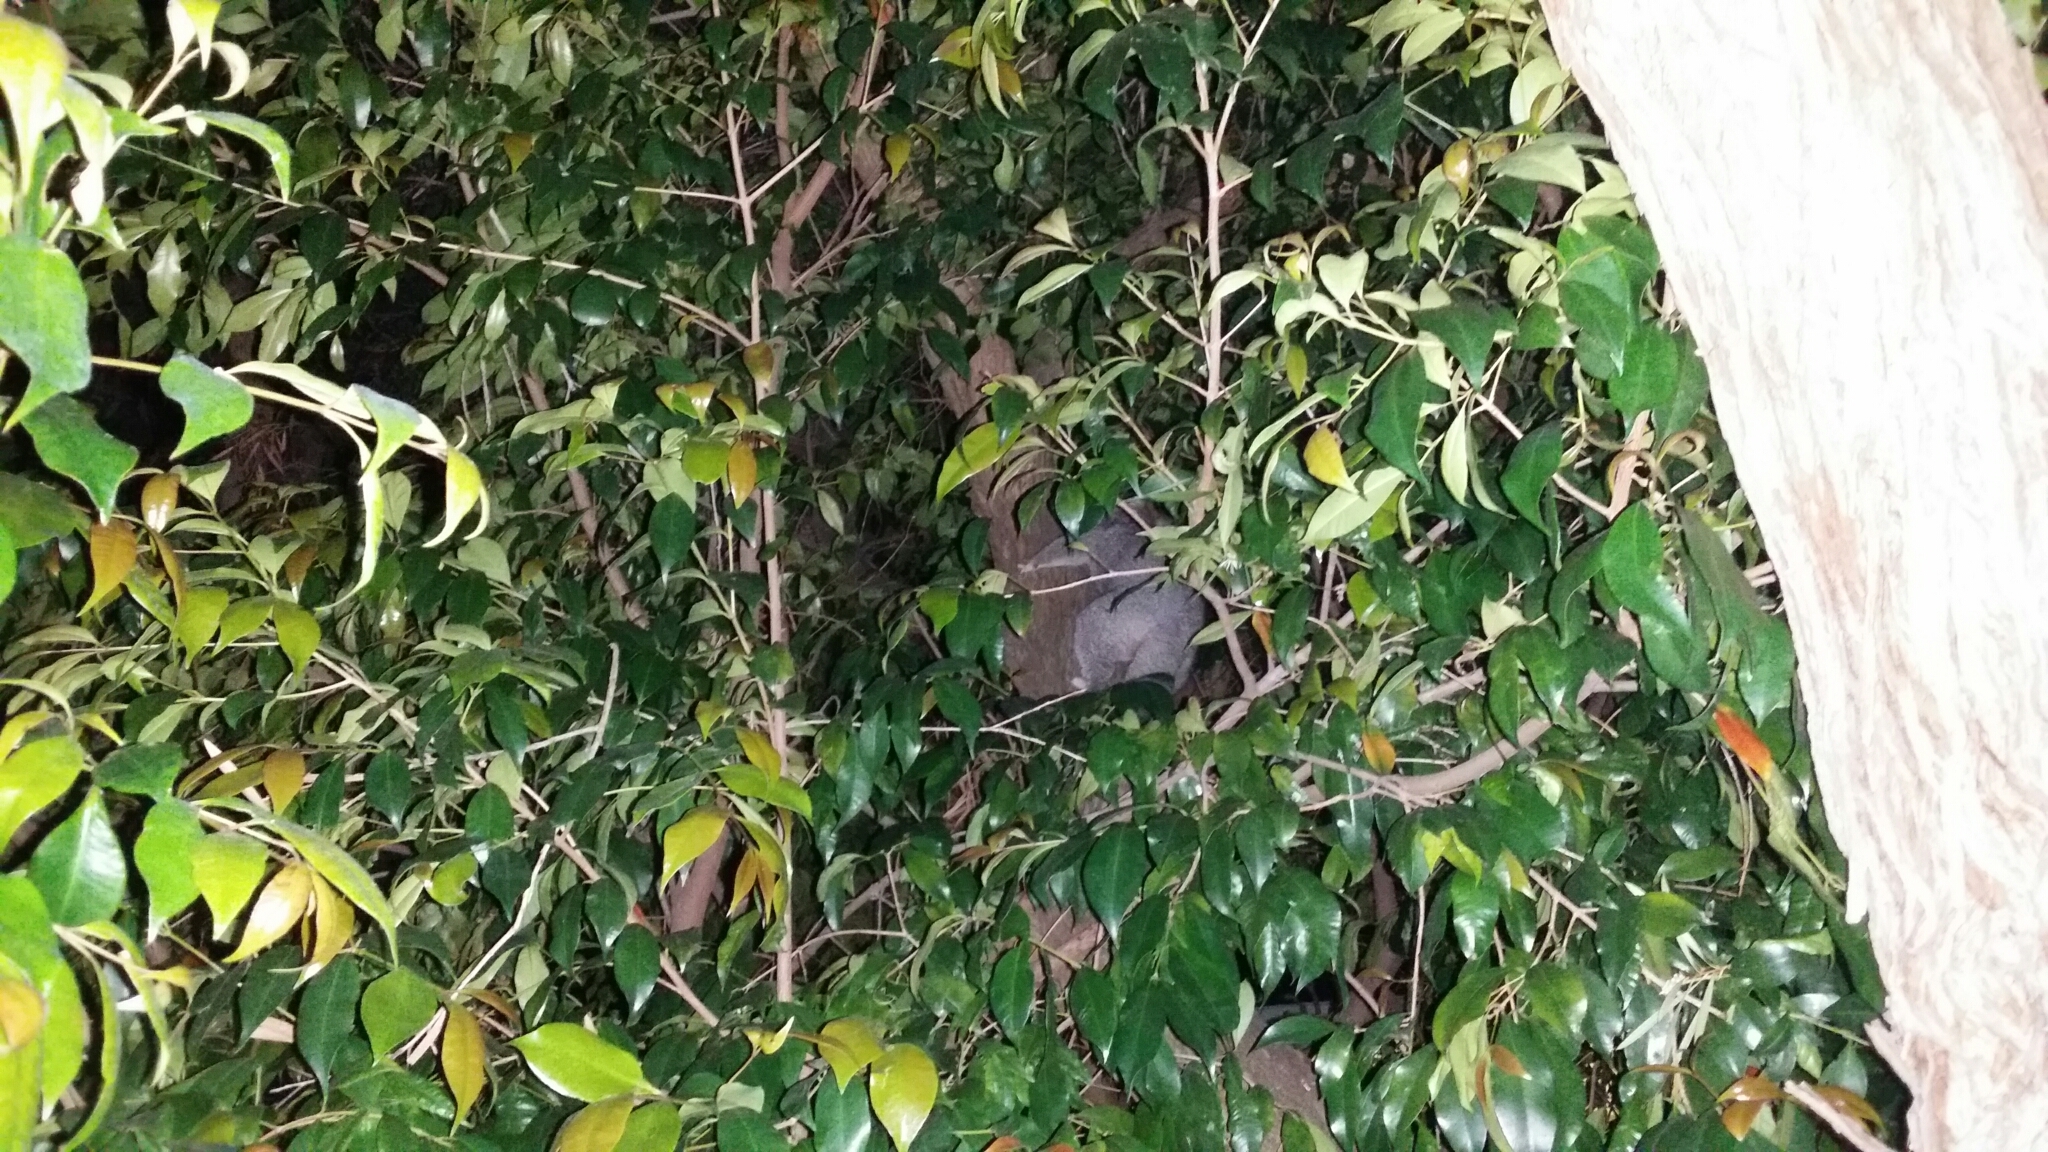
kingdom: Animalia
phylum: Chordata
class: Mammalia
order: Diprotodontia
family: Phalangeridae
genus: Trichosurus
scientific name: Trichosurus vulpecula
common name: Common brushtail
